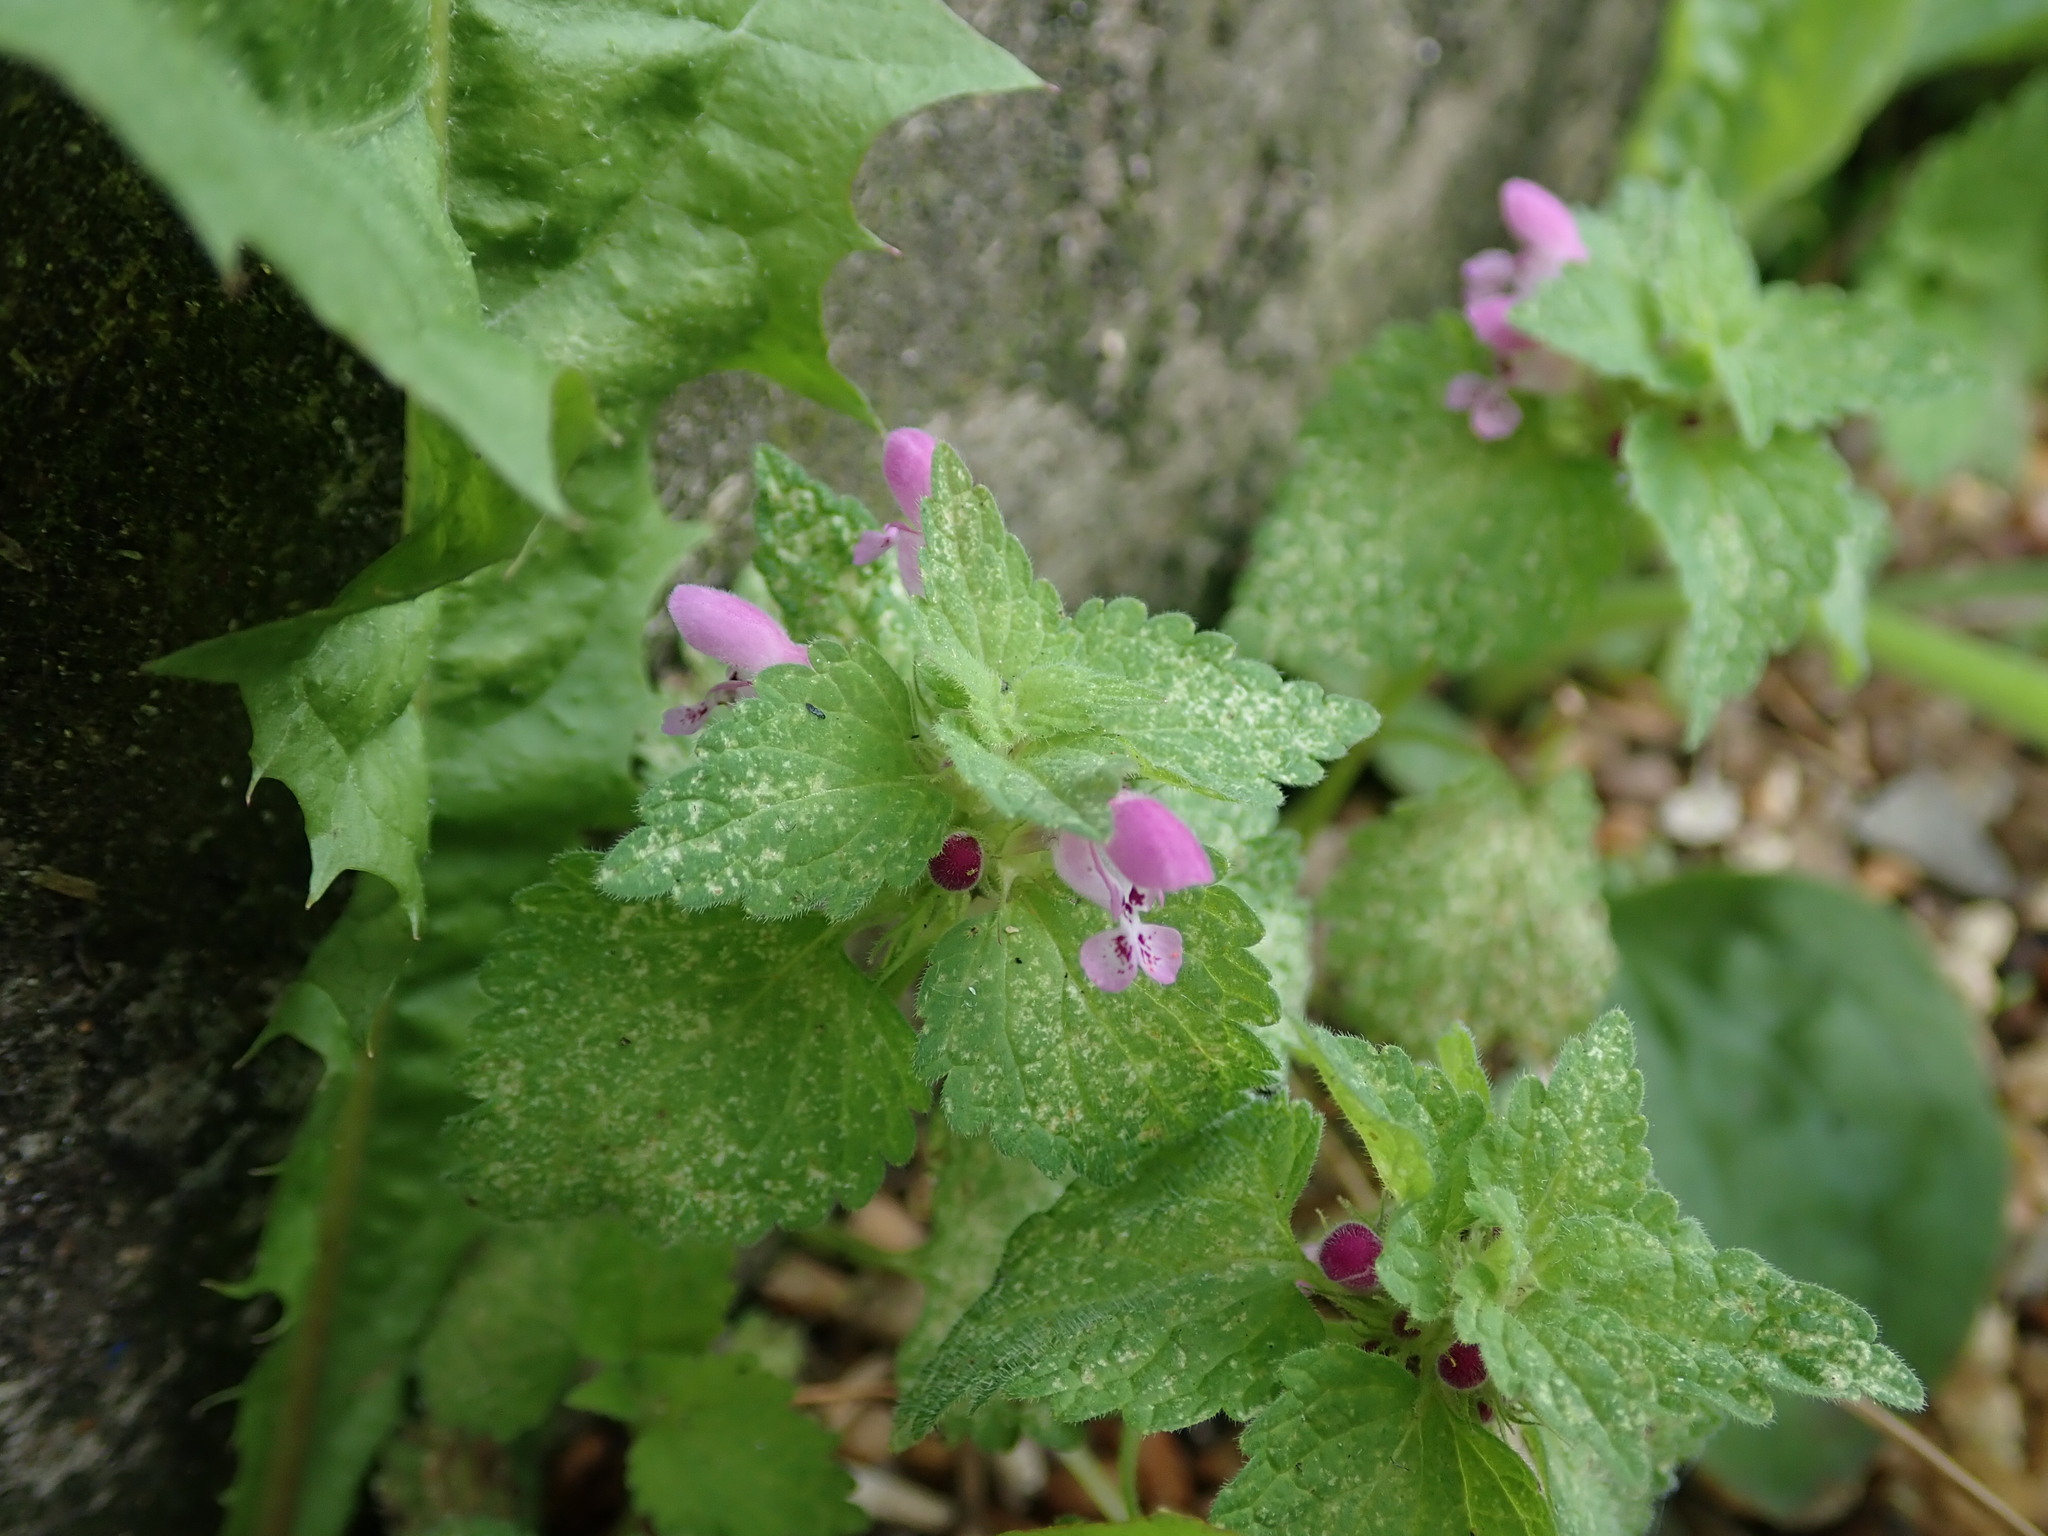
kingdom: Plantae
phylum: Tracheophyta
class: Magnoliopsida
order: Lamiales
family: Lamiaceae
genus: Lamium
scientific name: Lamium purpureum
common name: Red dead-nettle
